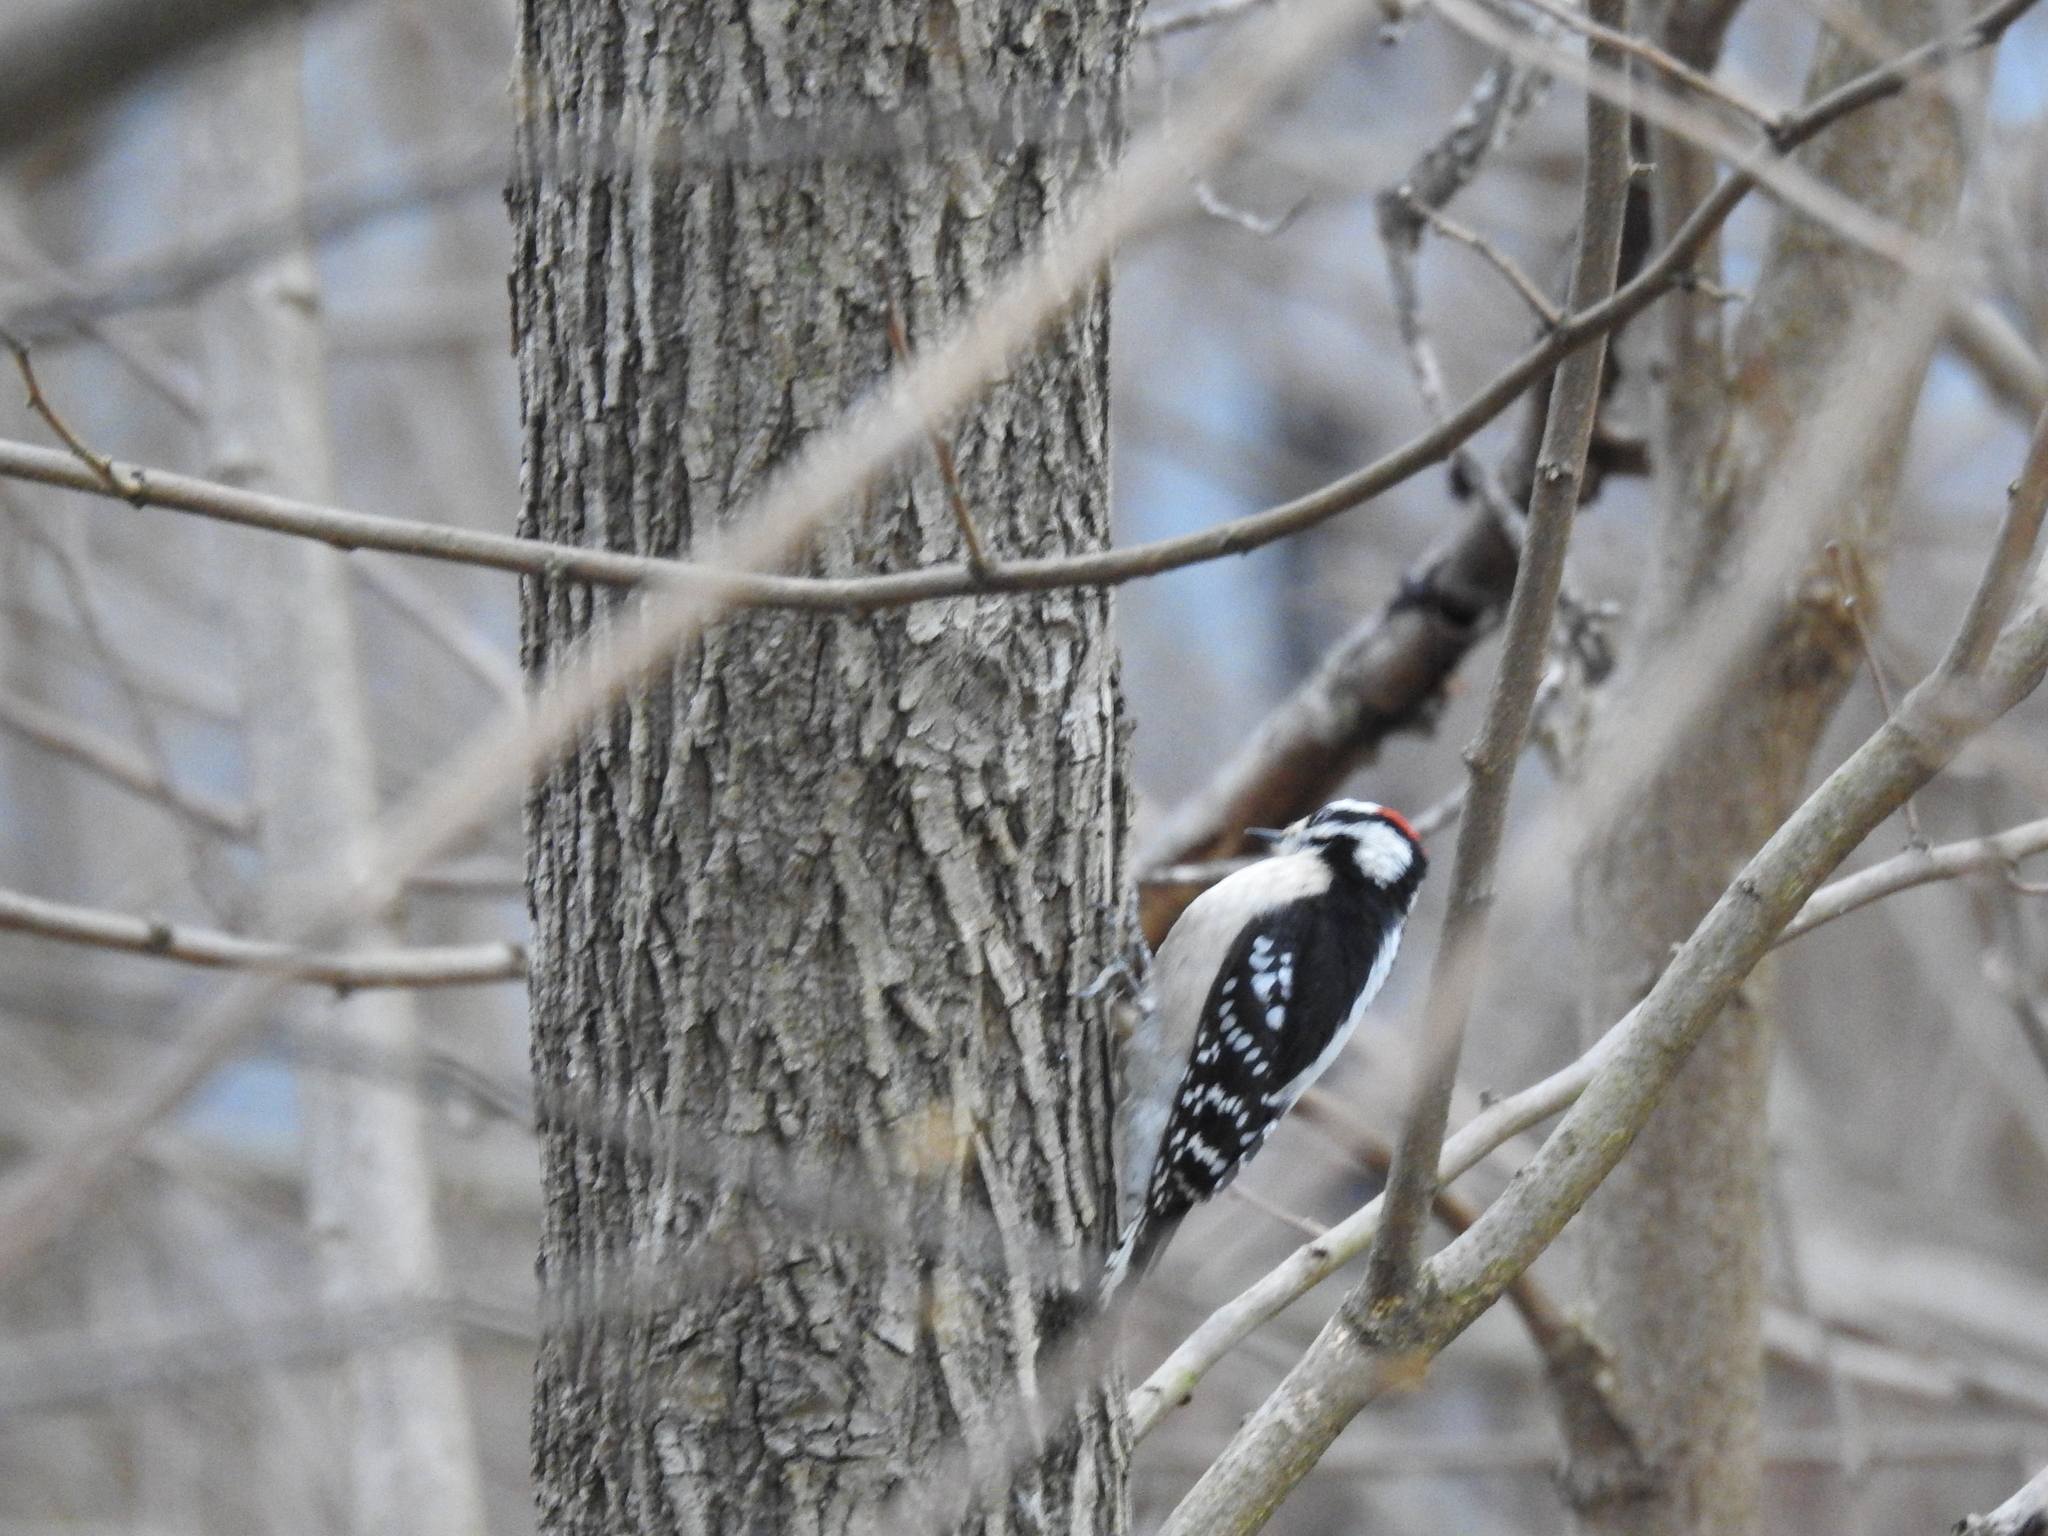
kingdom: Animalia
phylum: Chordata
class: Aves
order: Piciformes
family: Picidae
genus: Dryobates
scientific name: Dryobates pubescens
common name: Downy woodpecker
